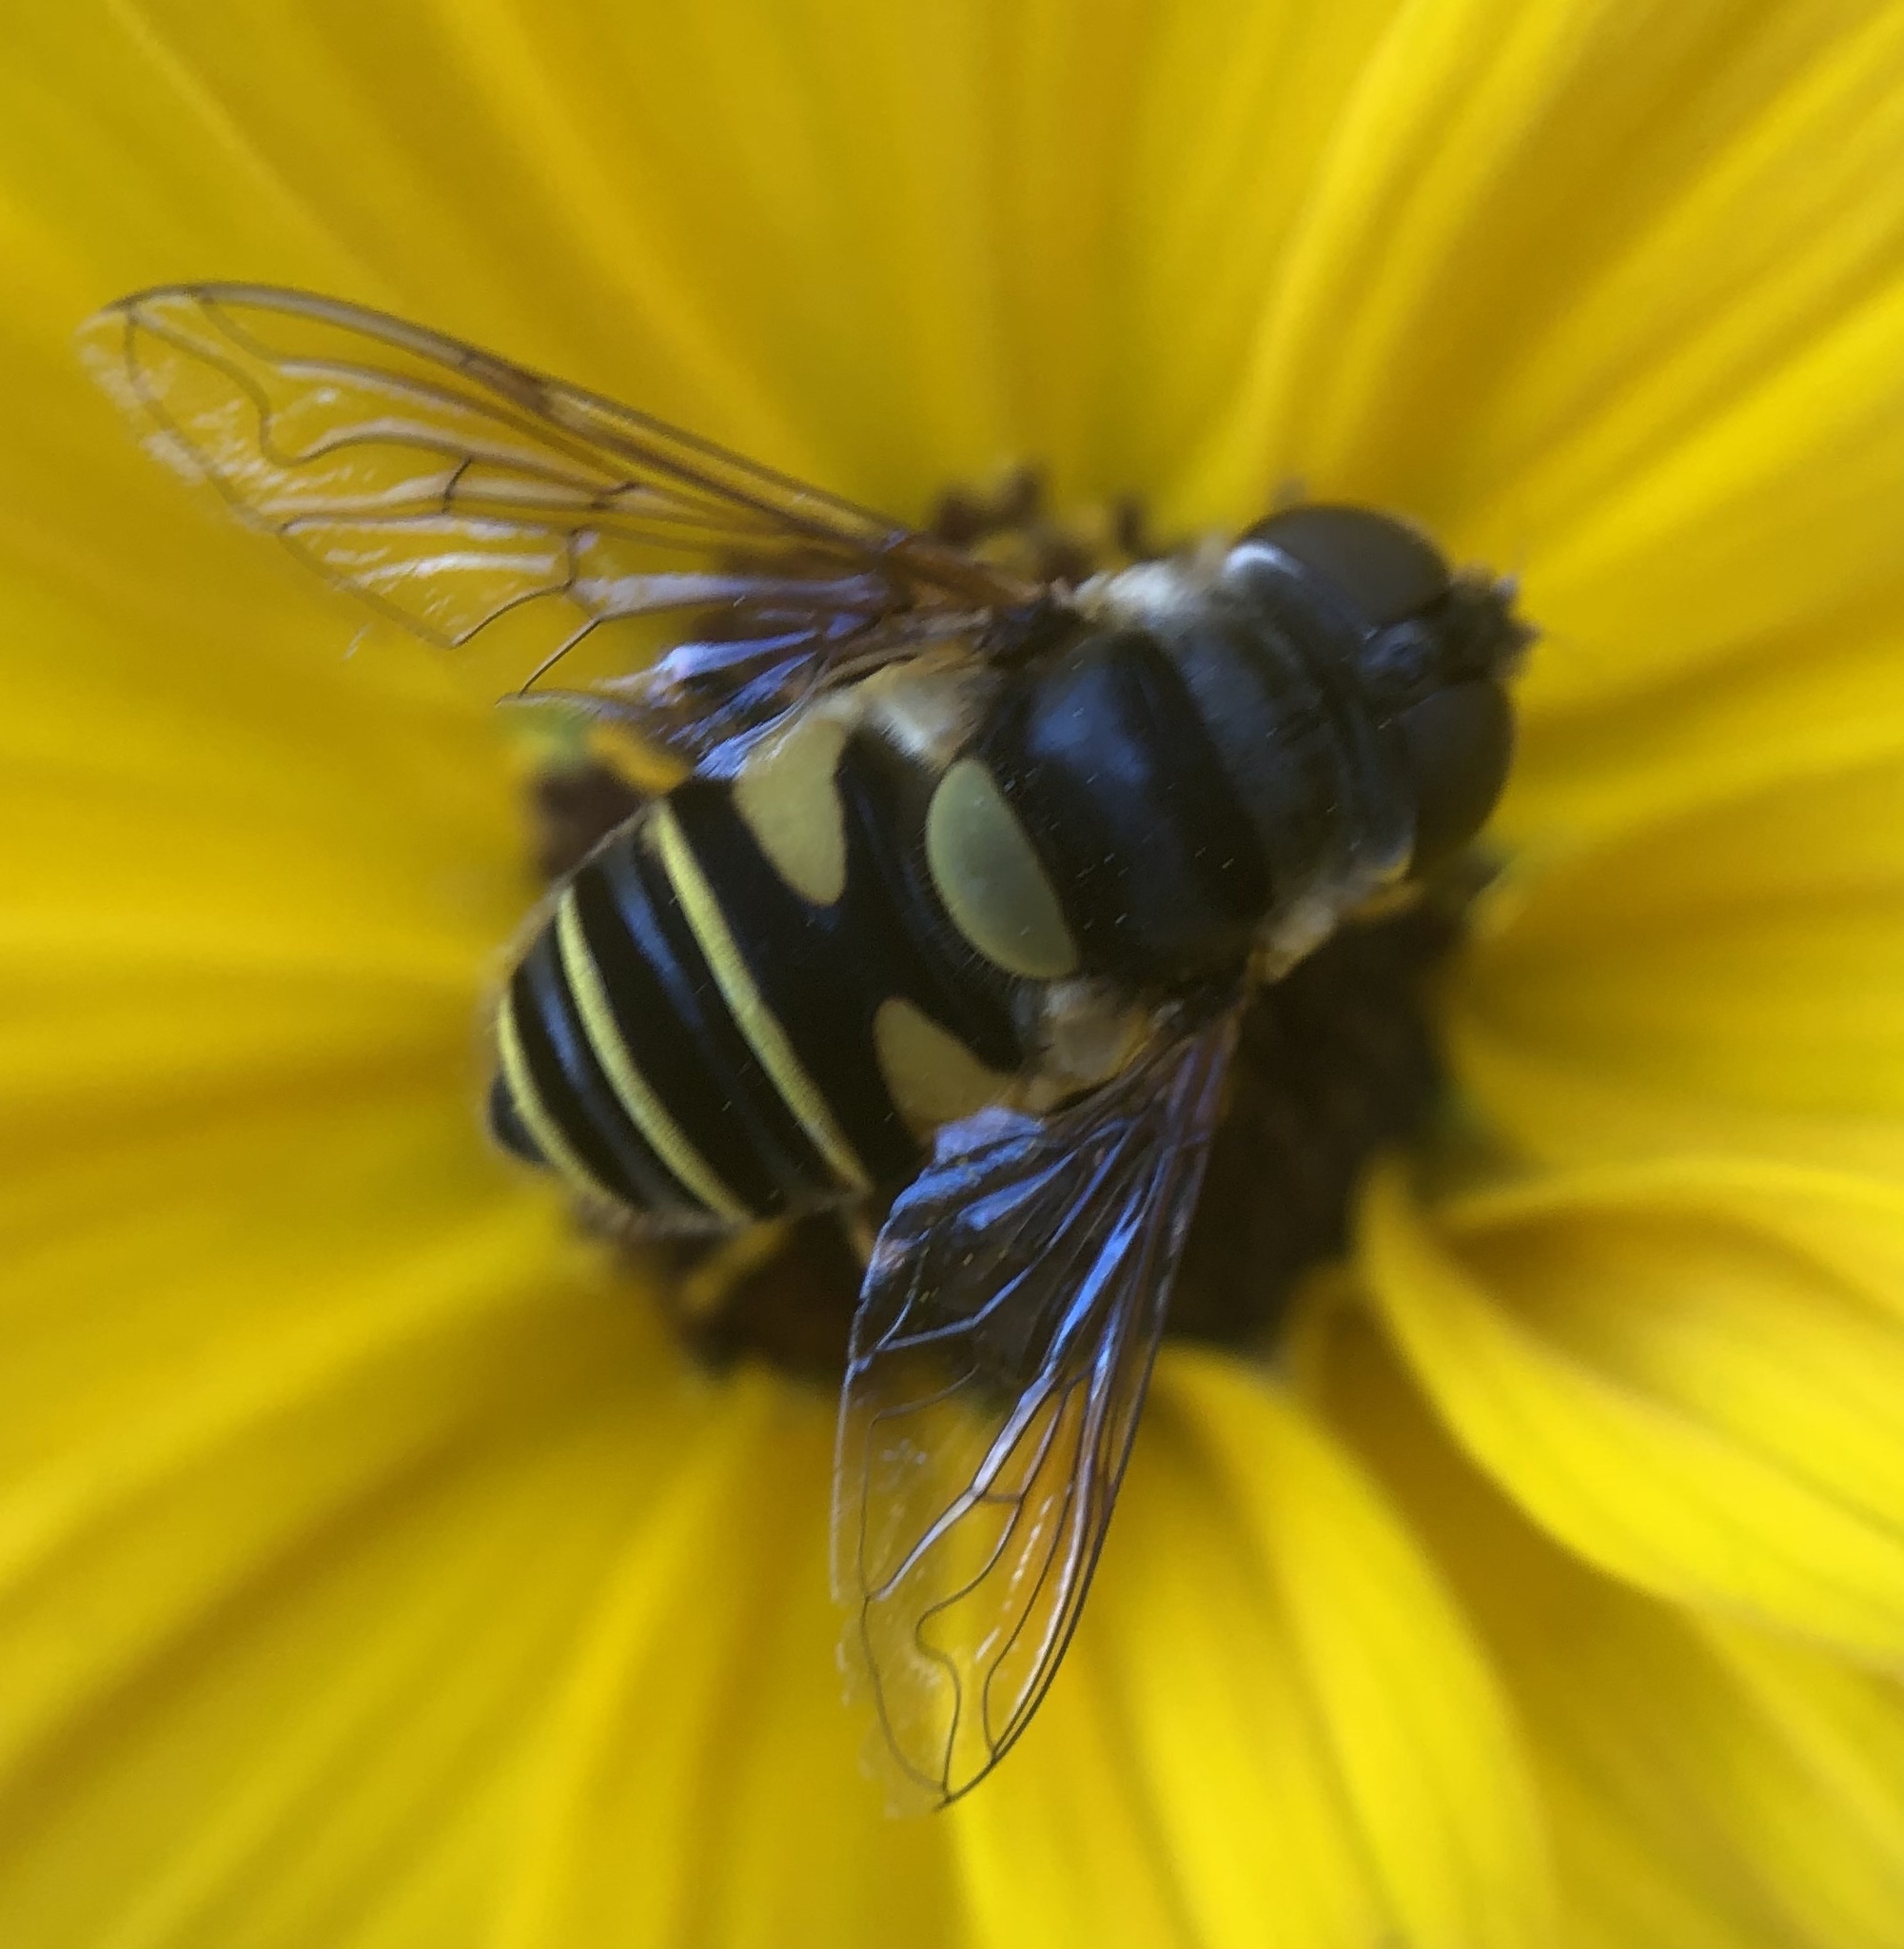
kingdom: Animalia
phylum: Arthropoda
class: Insecta
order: Diptera
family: Syrphidae
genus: Eristalis
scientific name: Eristalis transversa
